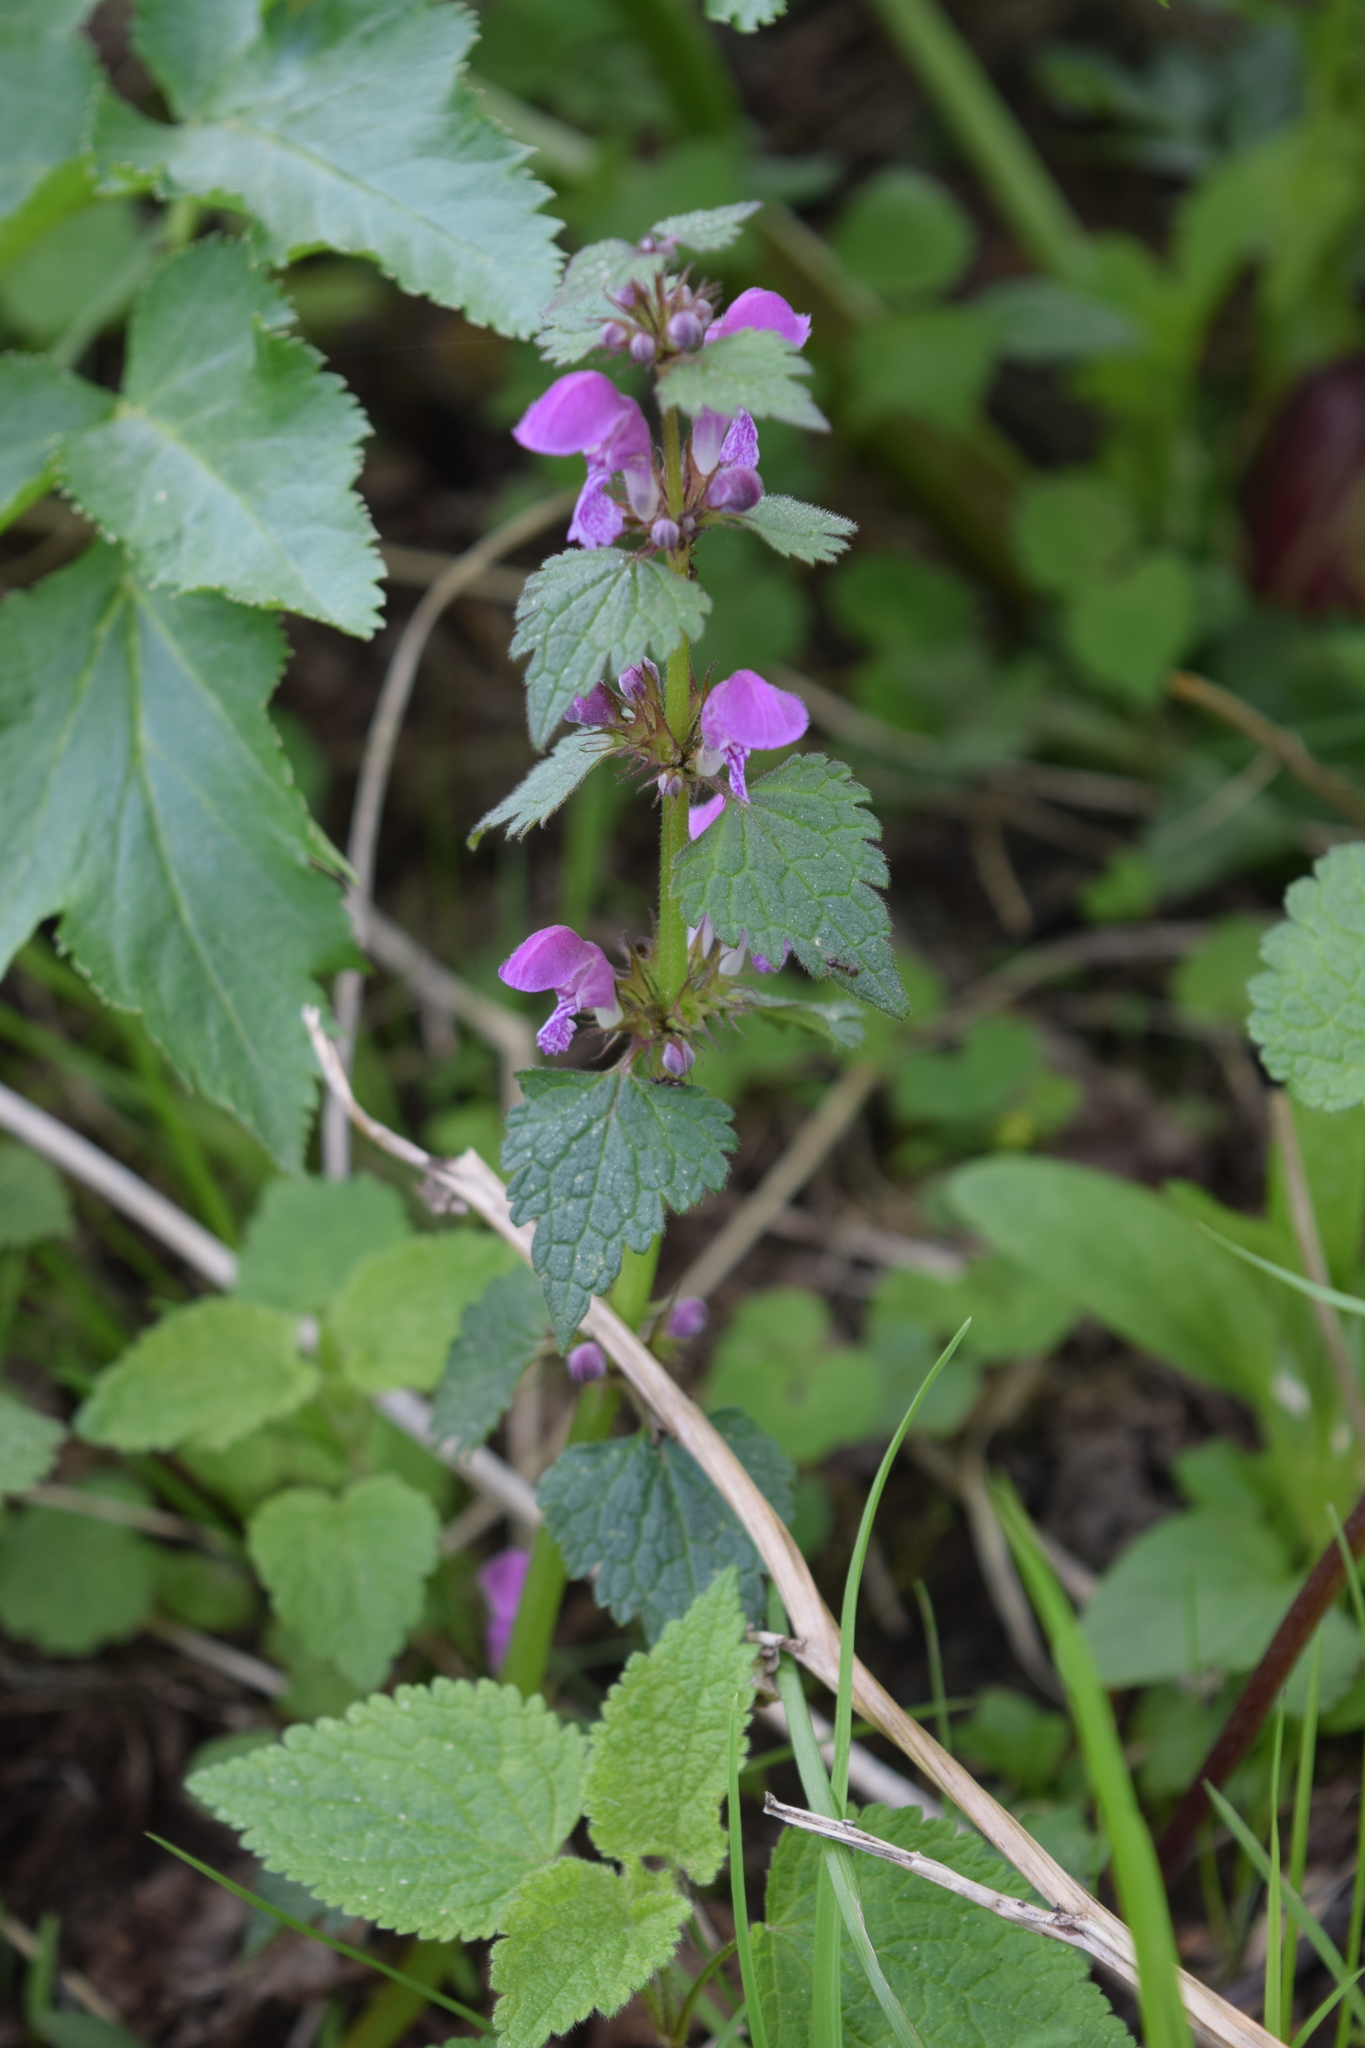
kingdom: Plantae
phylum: Tracheophyta
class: Magnoliopsida
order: Lamiales
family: Lamiaceae
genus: Lamium
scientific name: Lamium maculatum
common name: Spotted dead-nettle
